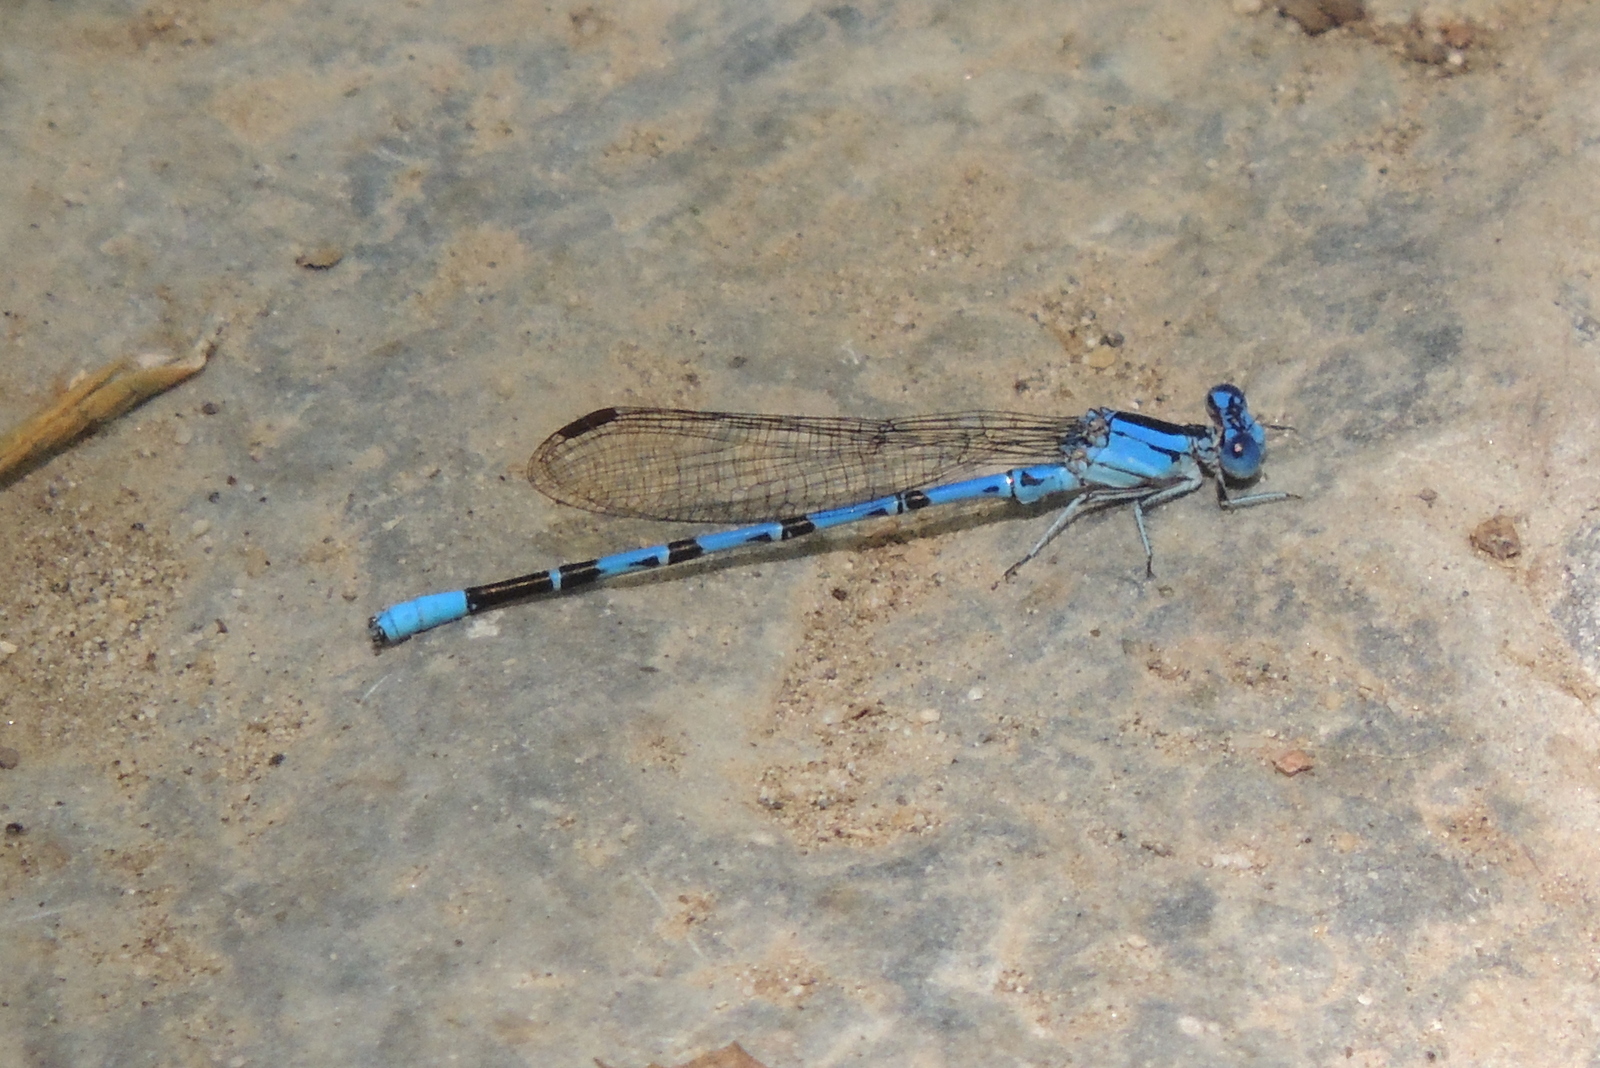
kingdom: Animalia
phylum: Arthropoda
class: Insecta
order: Odonata
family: Coenagrionidae
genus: Argia
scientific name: Argia vivida
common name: Vivid dancer
